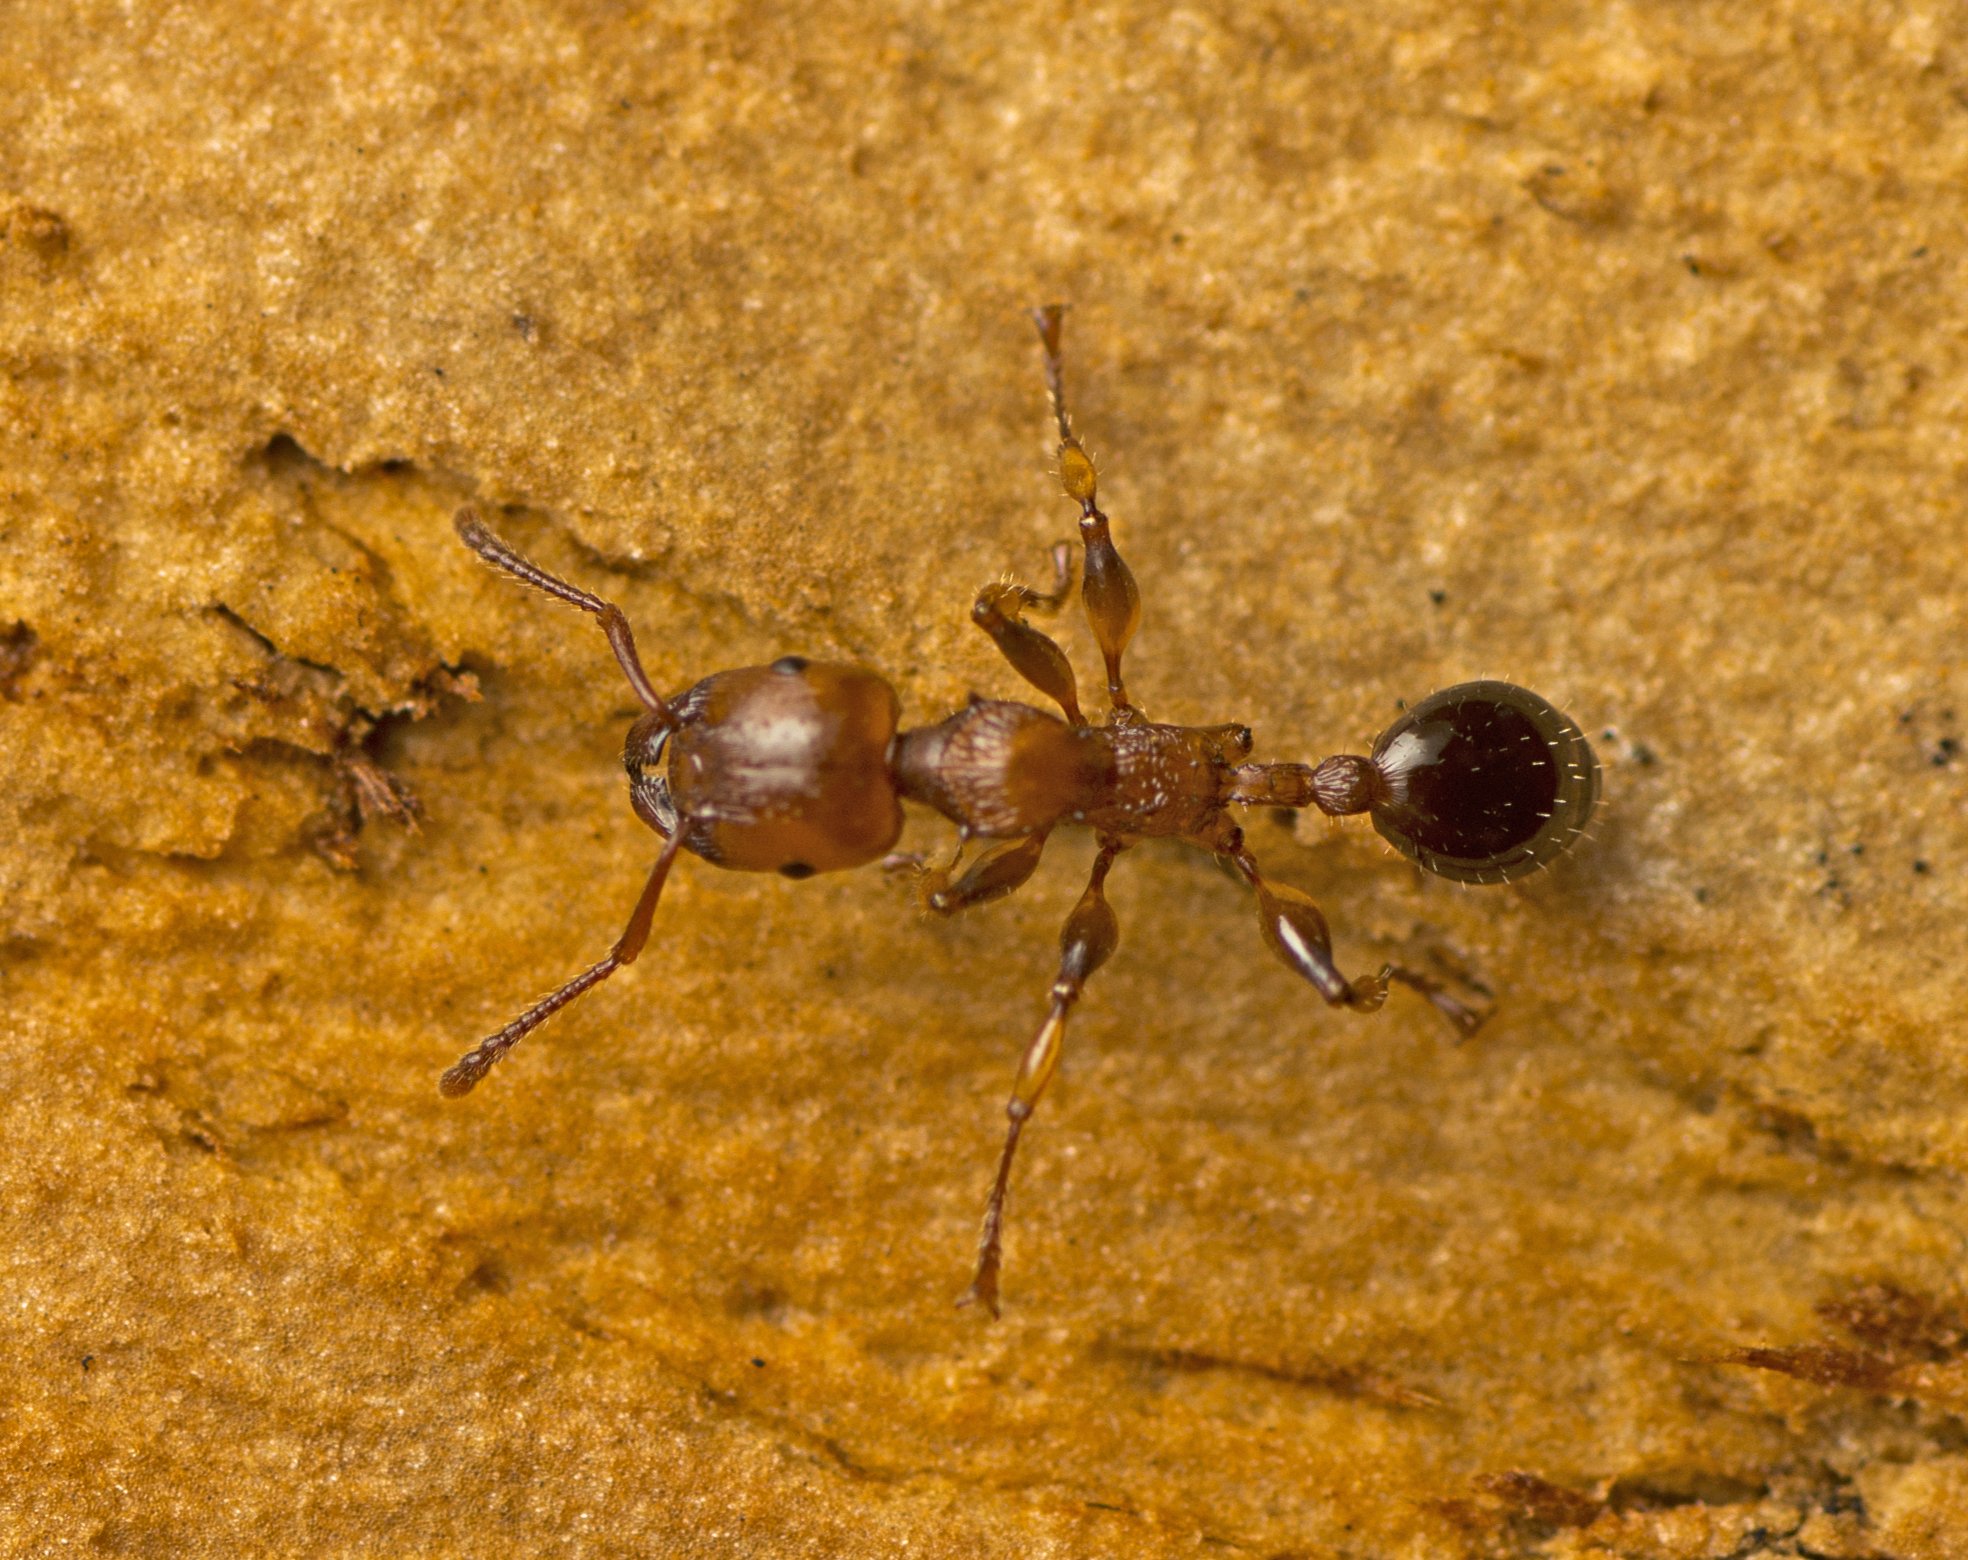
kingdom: Animalia
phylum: Arthropoda
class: Insecta
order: Hymenoptera
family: Formicidae
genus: Podomyrma
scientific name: Podomyrma gratiosa
